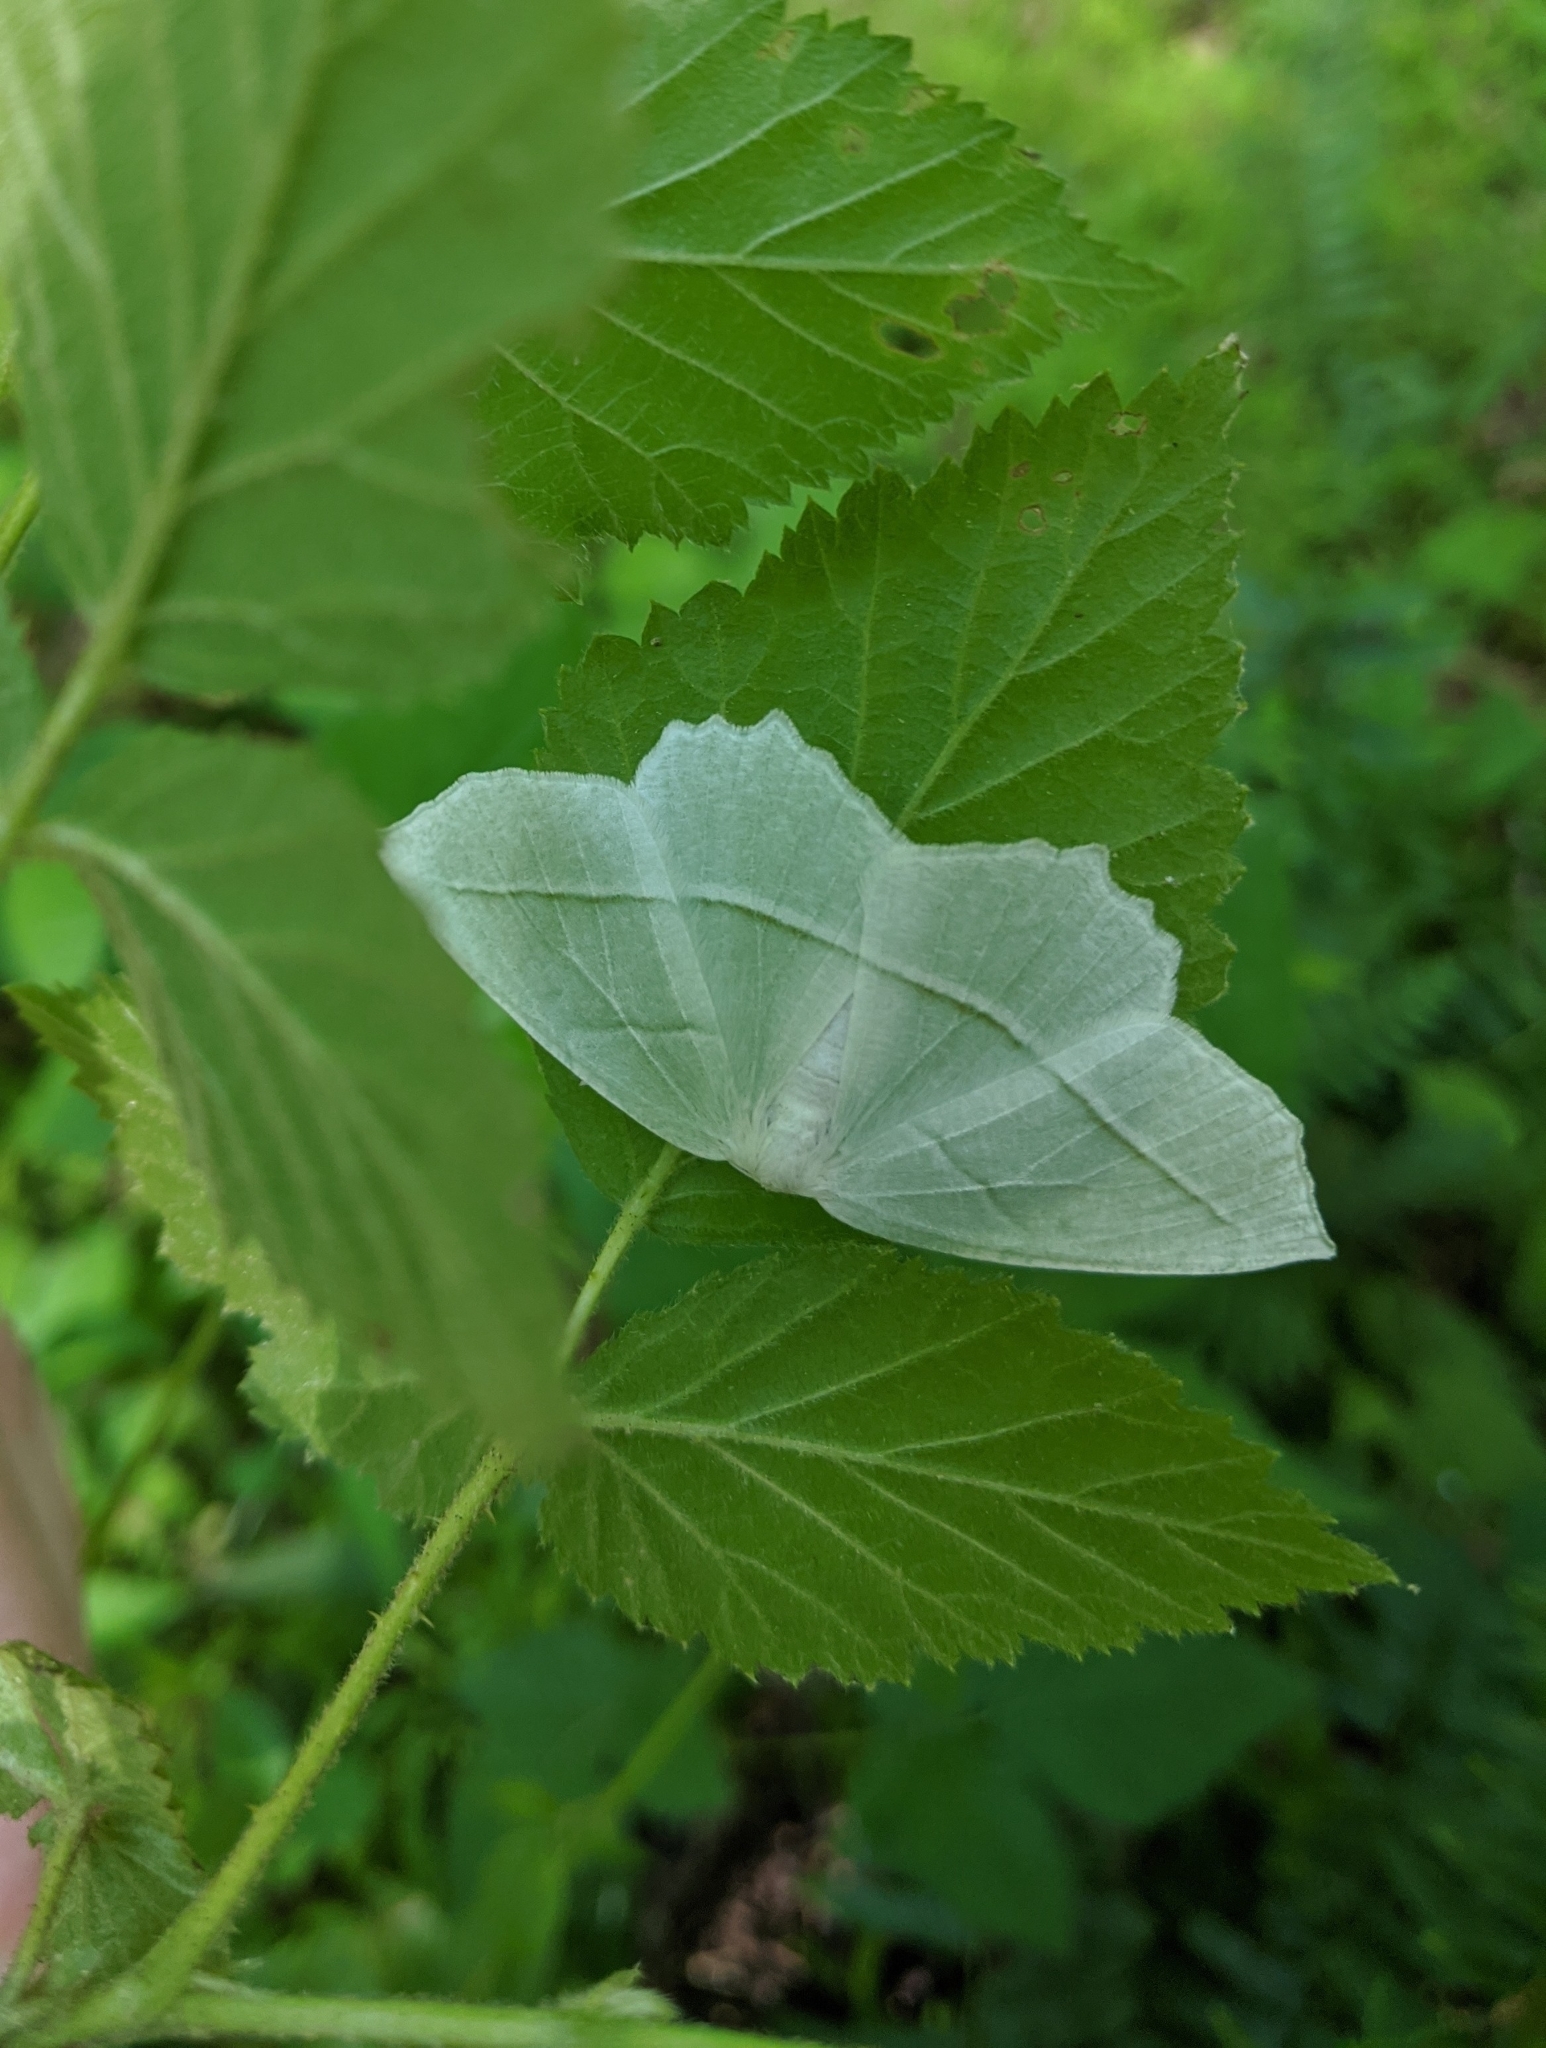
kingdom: Animalia
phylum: Arthropoda
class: Insecta
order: Lepidoptera
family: Geometridae
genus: Campaea
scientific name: Campaea perlata
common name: Fringed looper
